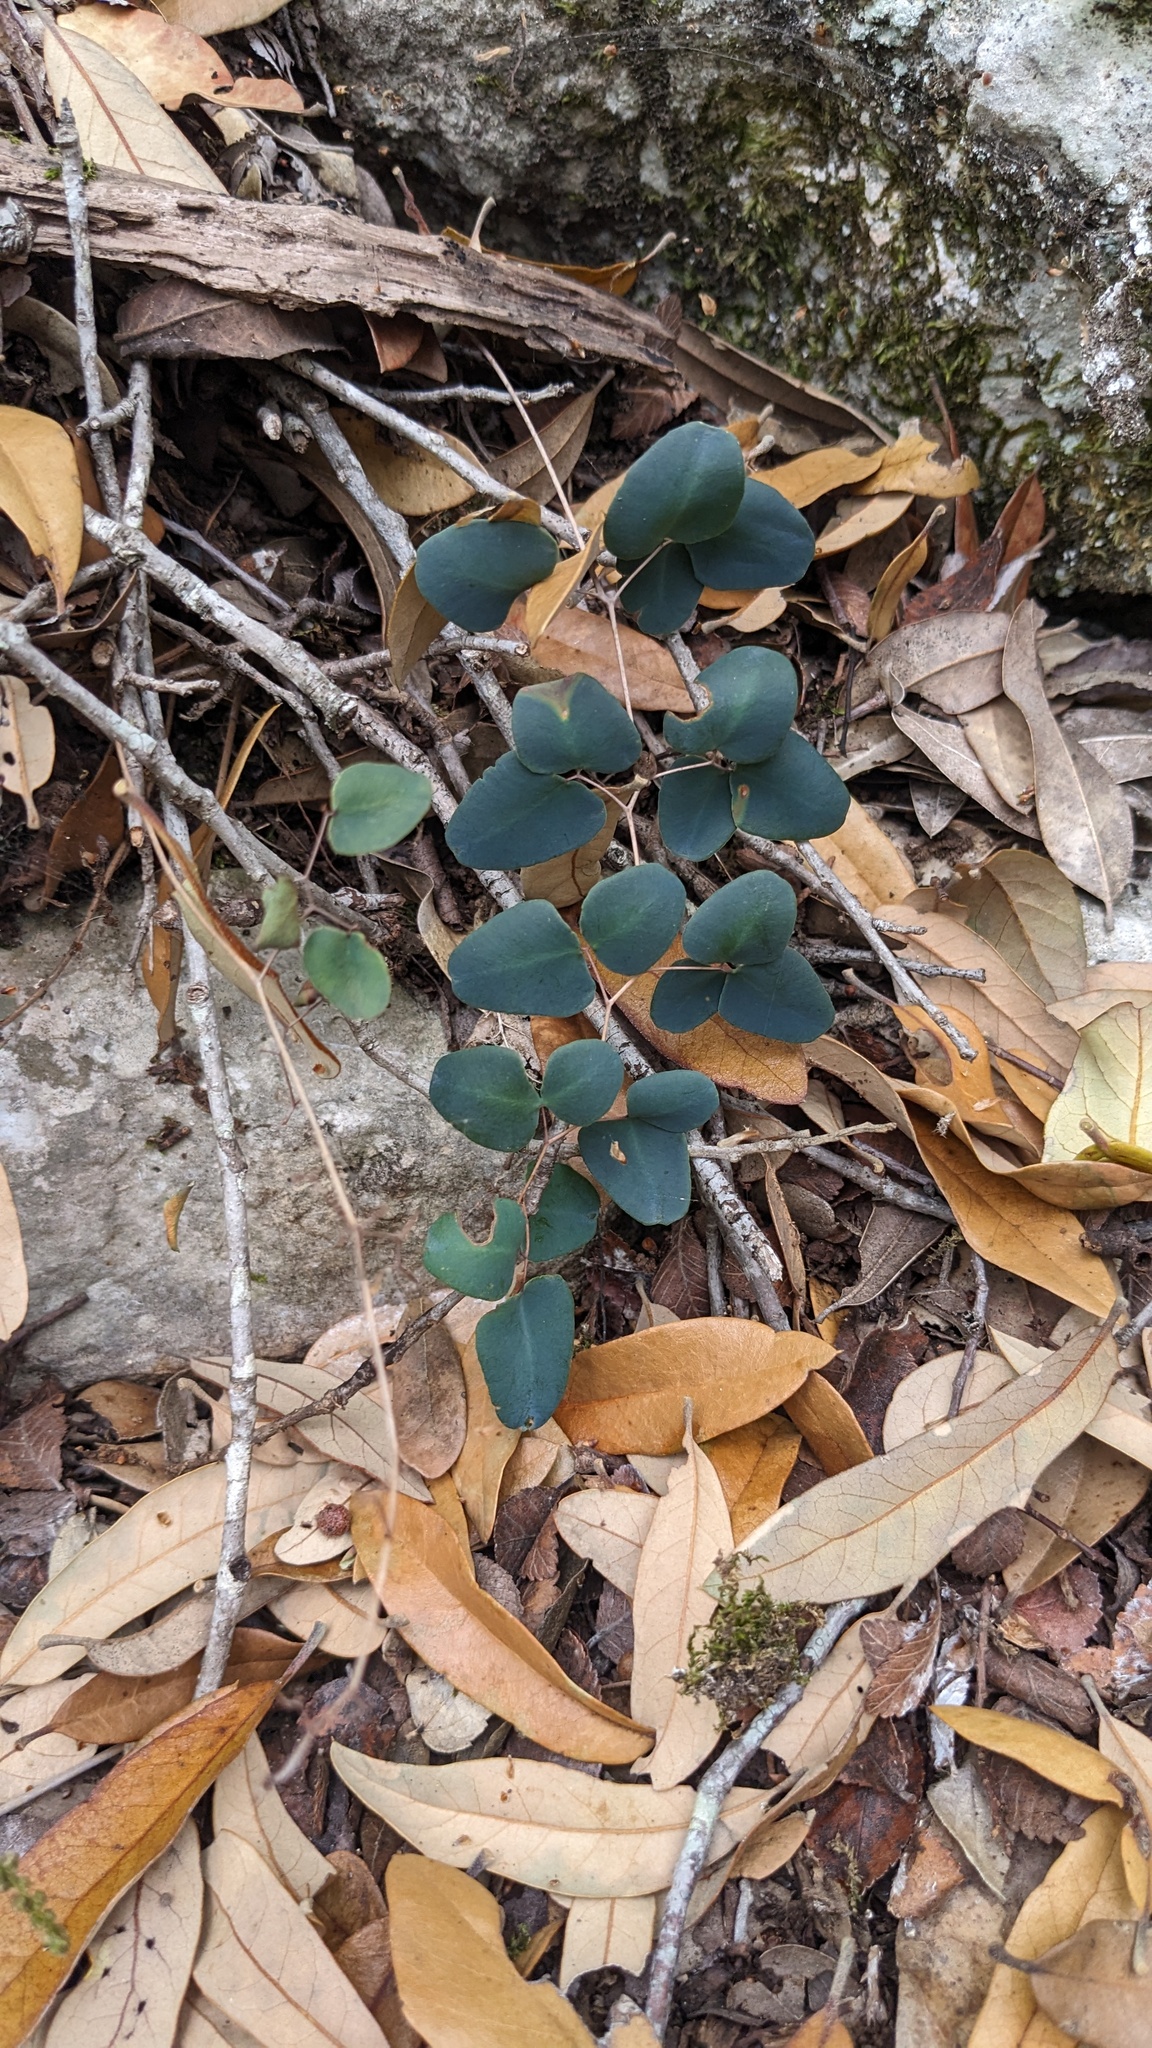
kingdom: Plantae
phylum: Tracheophyta
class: Polypodiopsida
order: Polypodiales
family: Pteridaceae
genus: Pellaea
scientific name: Pellaea ovata
